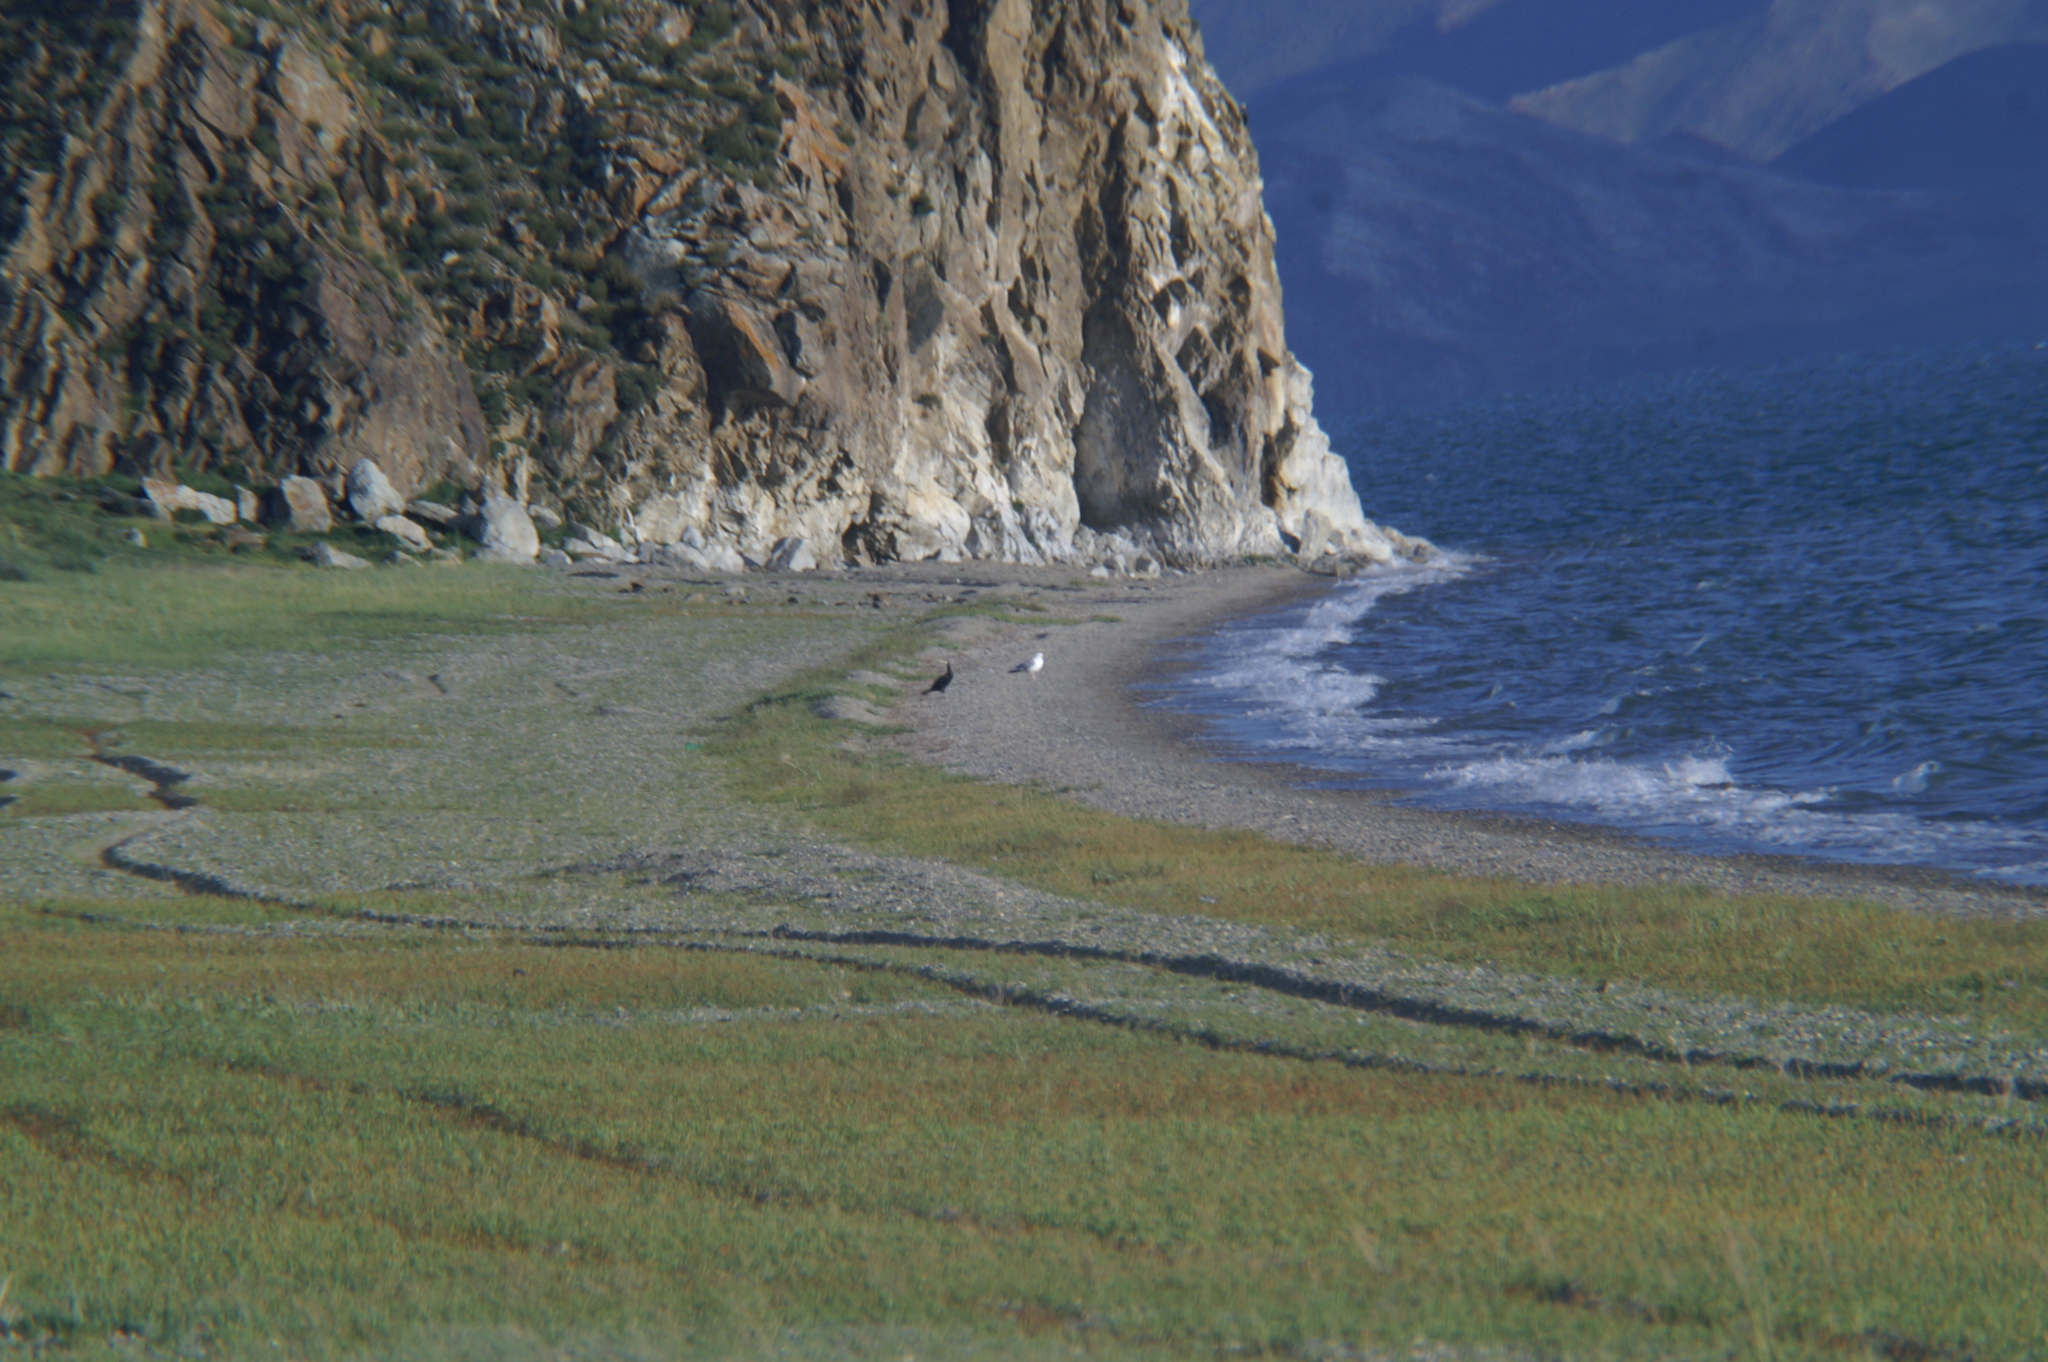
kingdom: Animalia
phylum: Chordata
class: Aves
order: Suliformes
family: Phalacrocoracidae
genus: Phalacrocorax
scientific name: Phalacrocorax carbo
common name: Great cormorant
